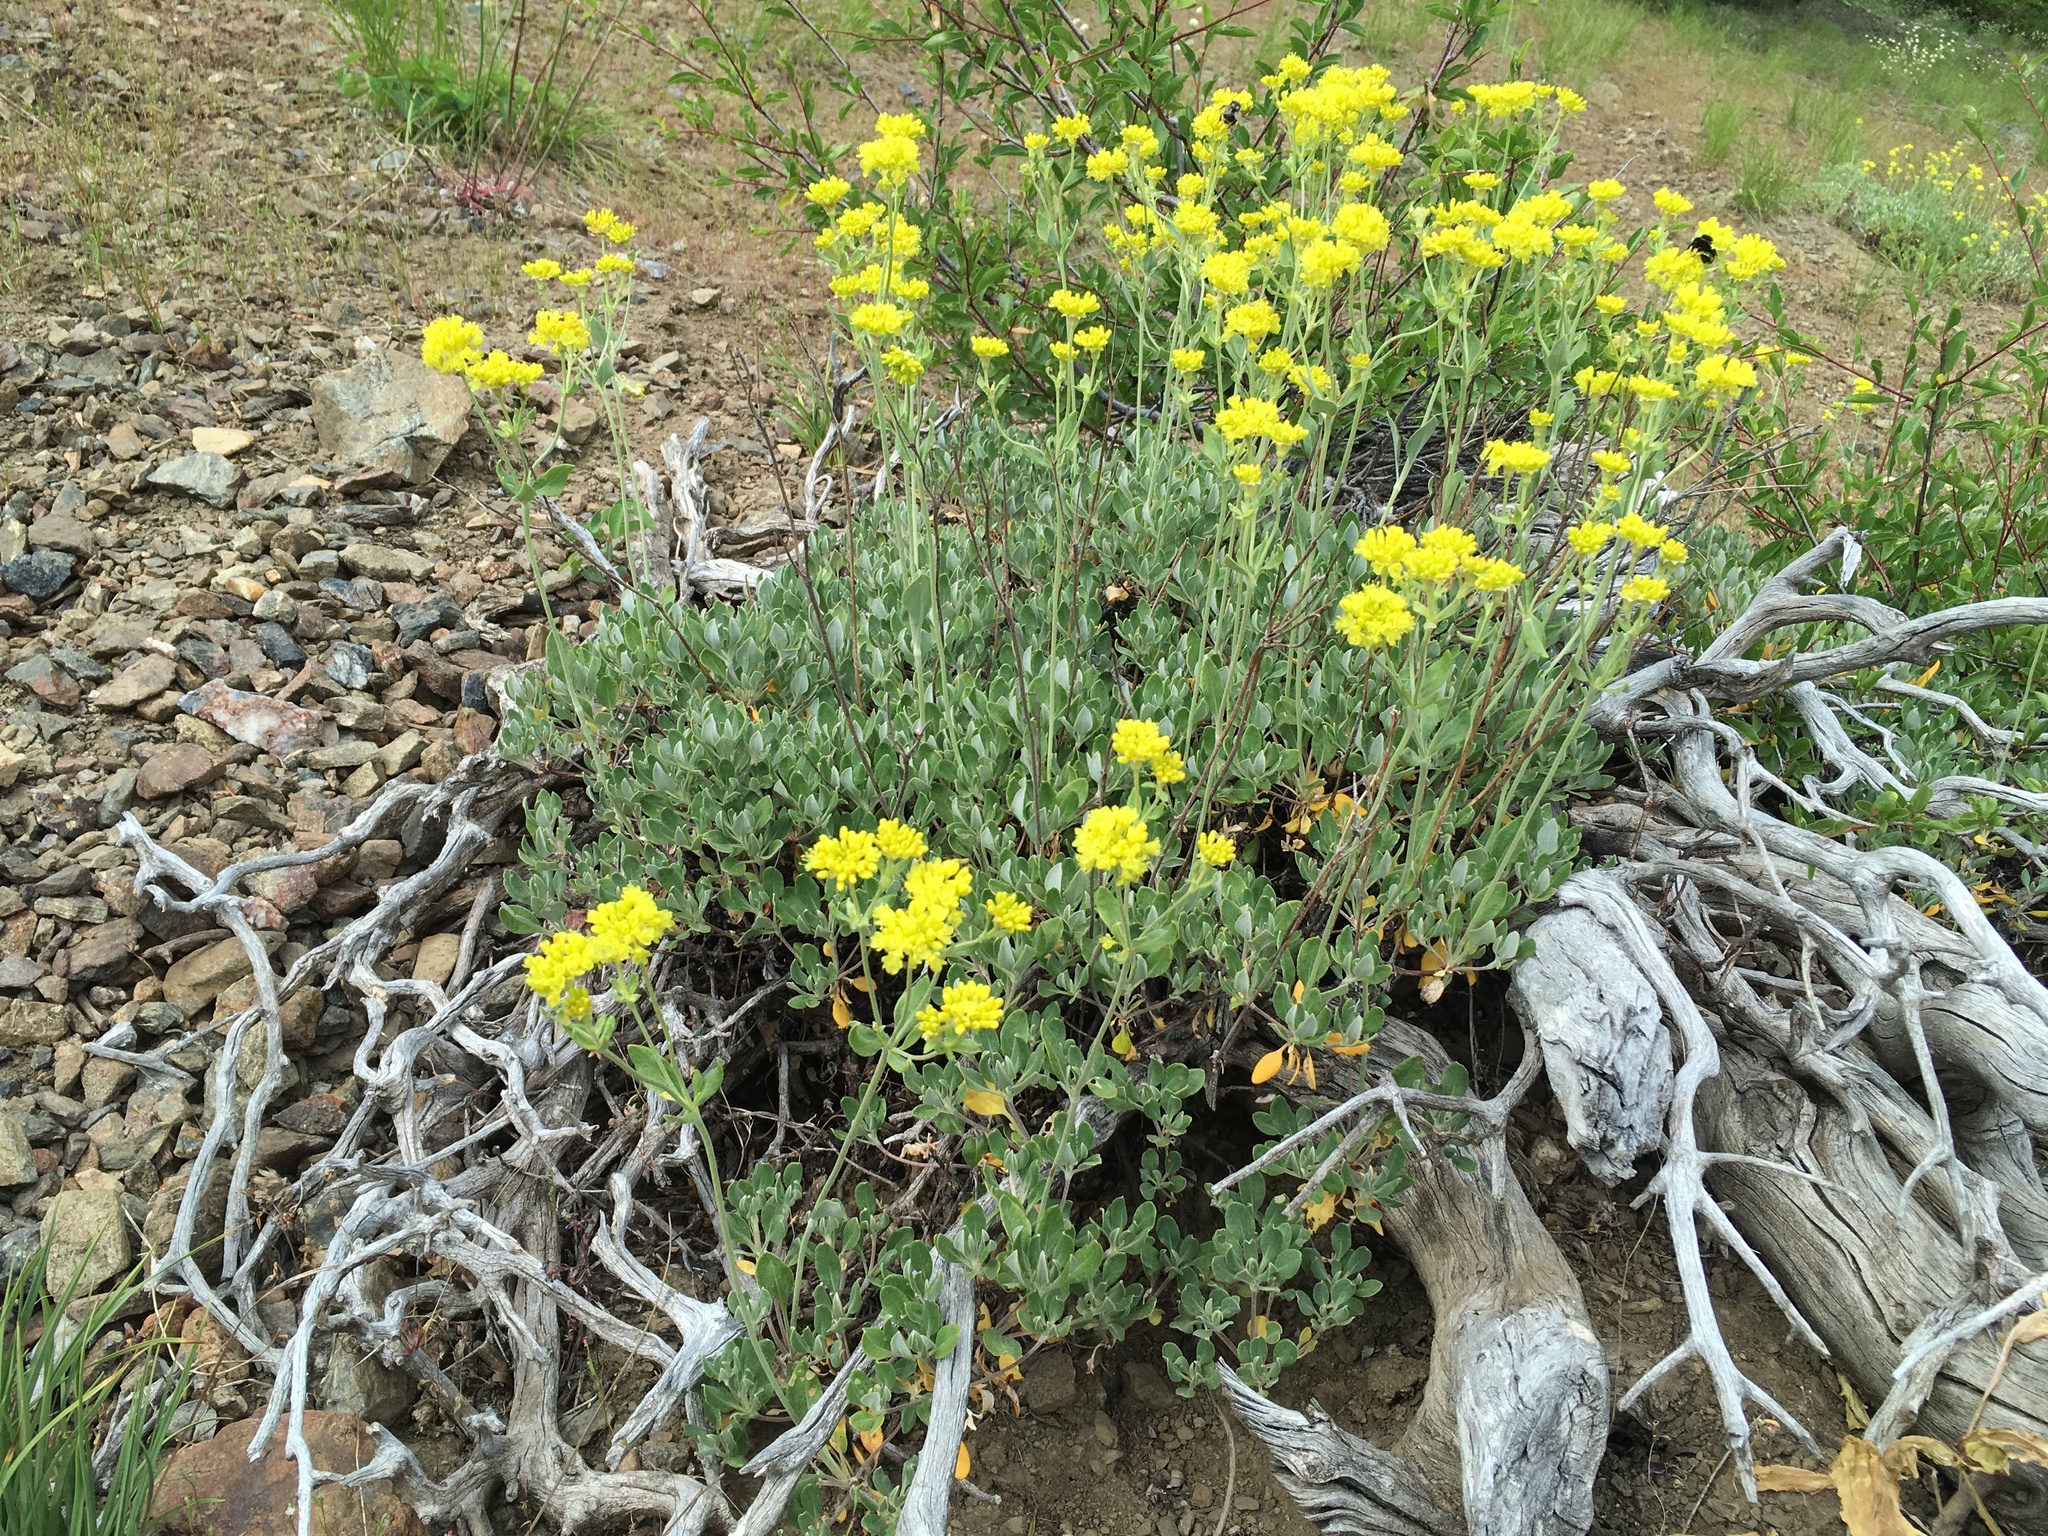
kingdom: Plantae
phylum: Tracheophyta
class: Magnoliopsida
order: Caryophyllales
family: Polygonaceae
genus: Eriogonum
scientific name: Eriogonum umbellatum
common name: Sulfur-buckwheat
